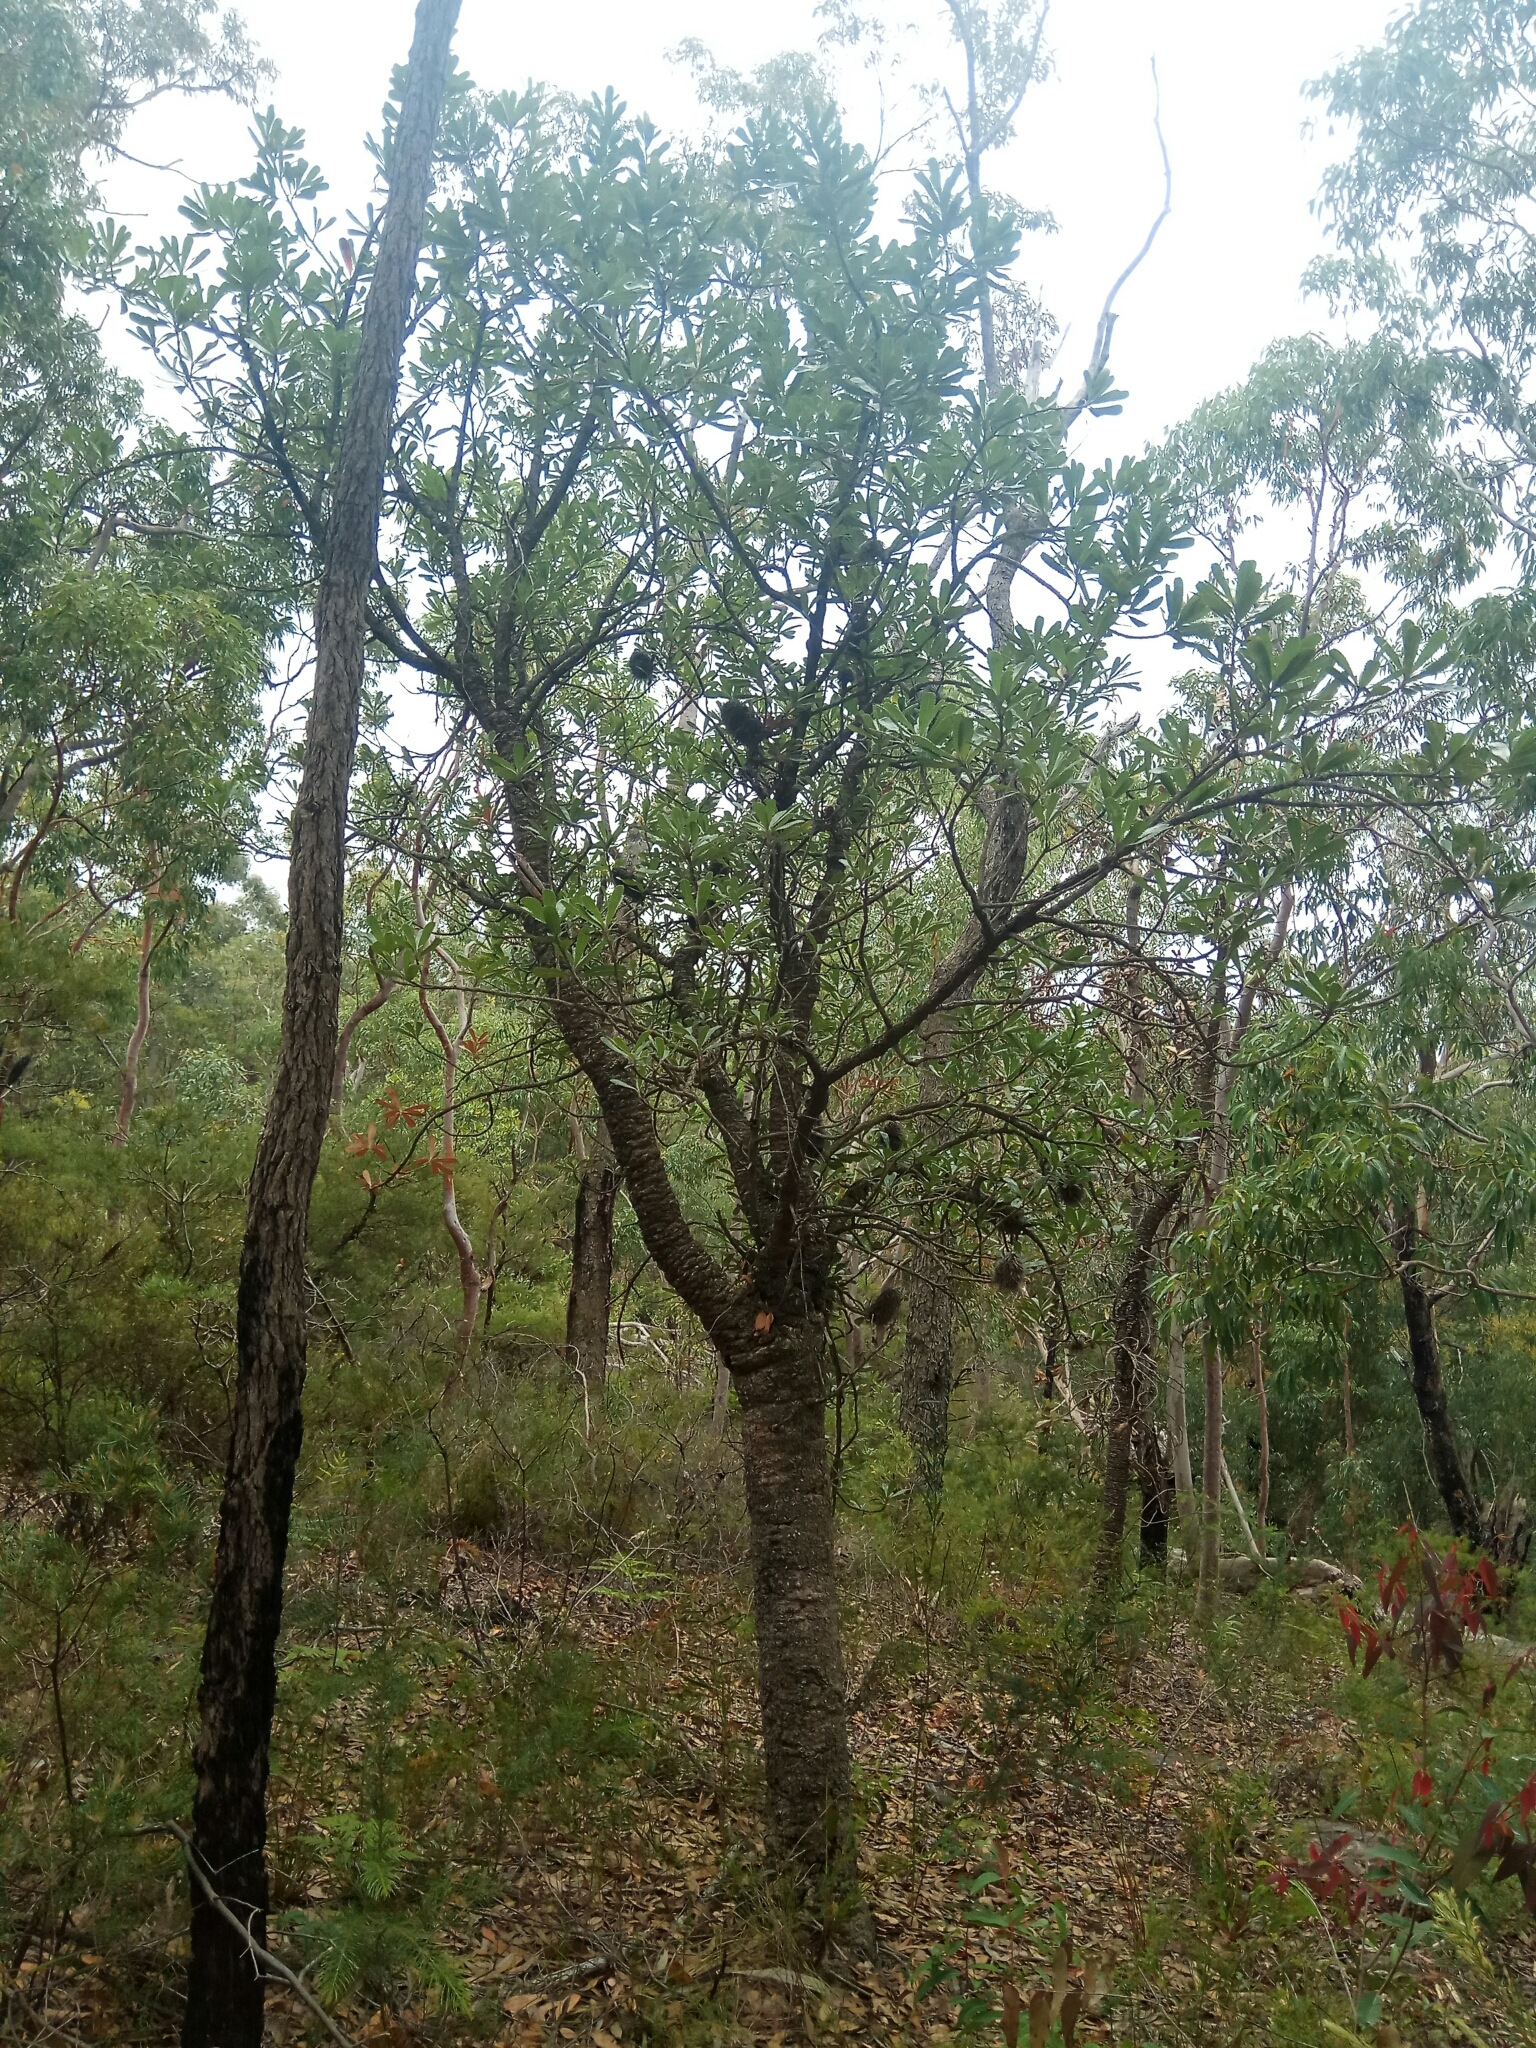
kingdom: Plantae
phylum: Tracheophyta
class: Magnoliopsida
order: Proteales
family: Proteaceae
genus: Banksia
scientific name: Banksia serrata
